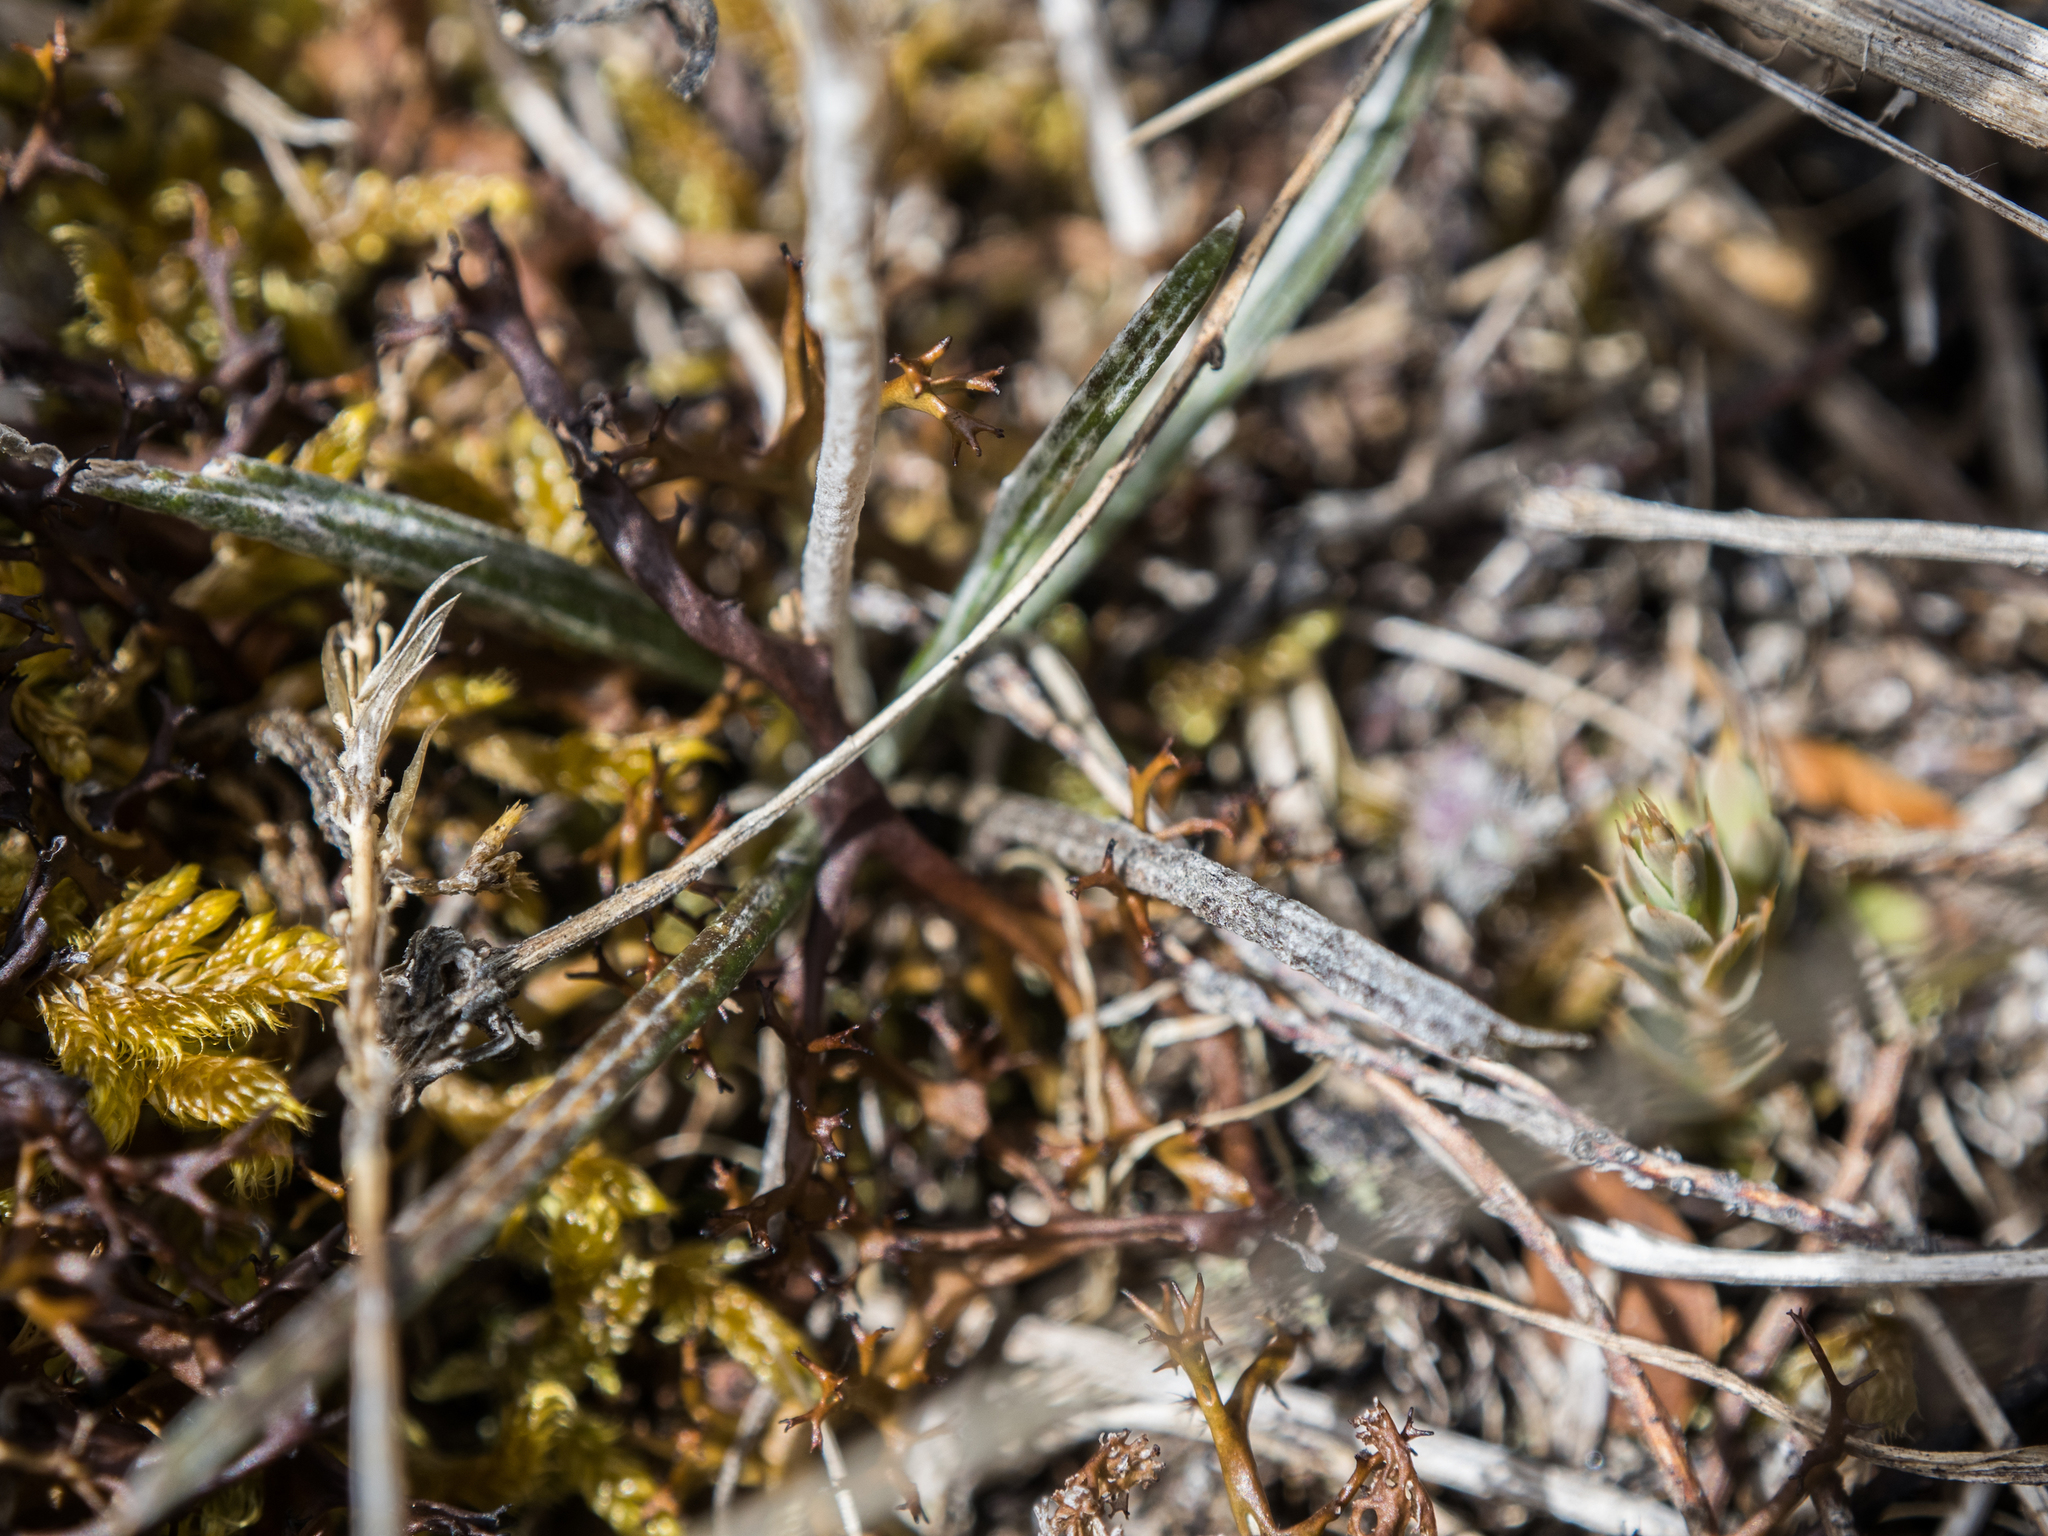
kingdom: Plantae
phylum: Tracheophyta
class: Magnoliopsida
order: Asterales
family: Asteraceae
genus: Celmisia
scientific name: Celmisia gracilenta
